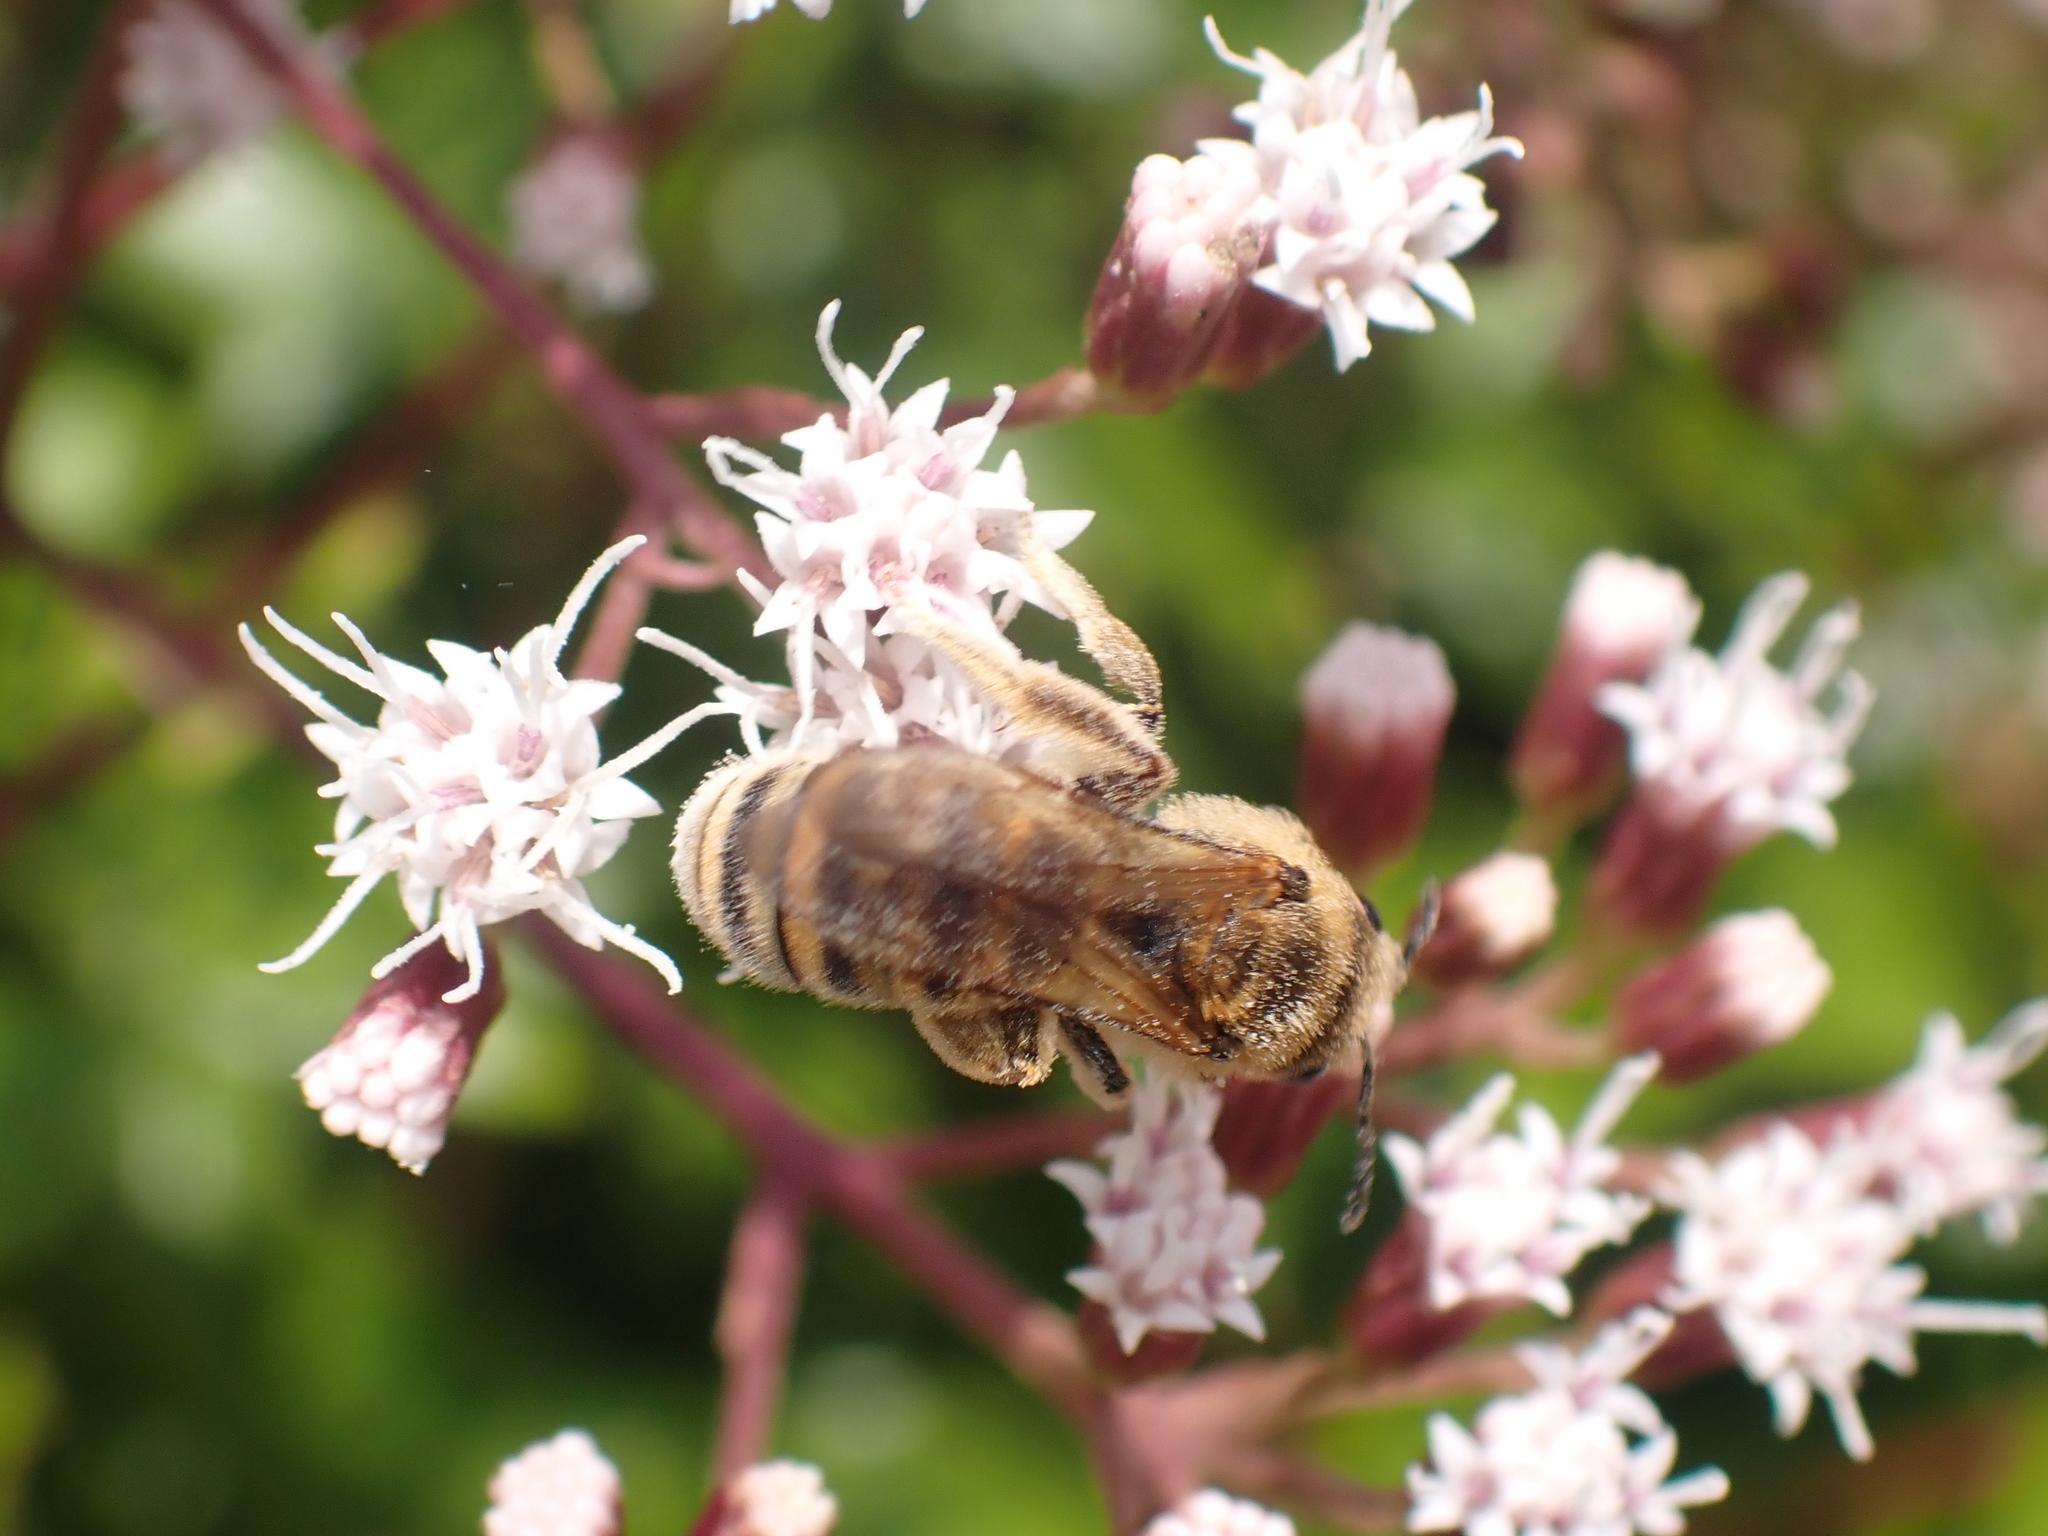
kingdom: Animalia
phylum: Arthropoda
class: Insecta
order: Hymenoptera
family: Halictidae
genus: Halictus
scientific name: Halictus scabiosae
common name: Great banded furrow bee
